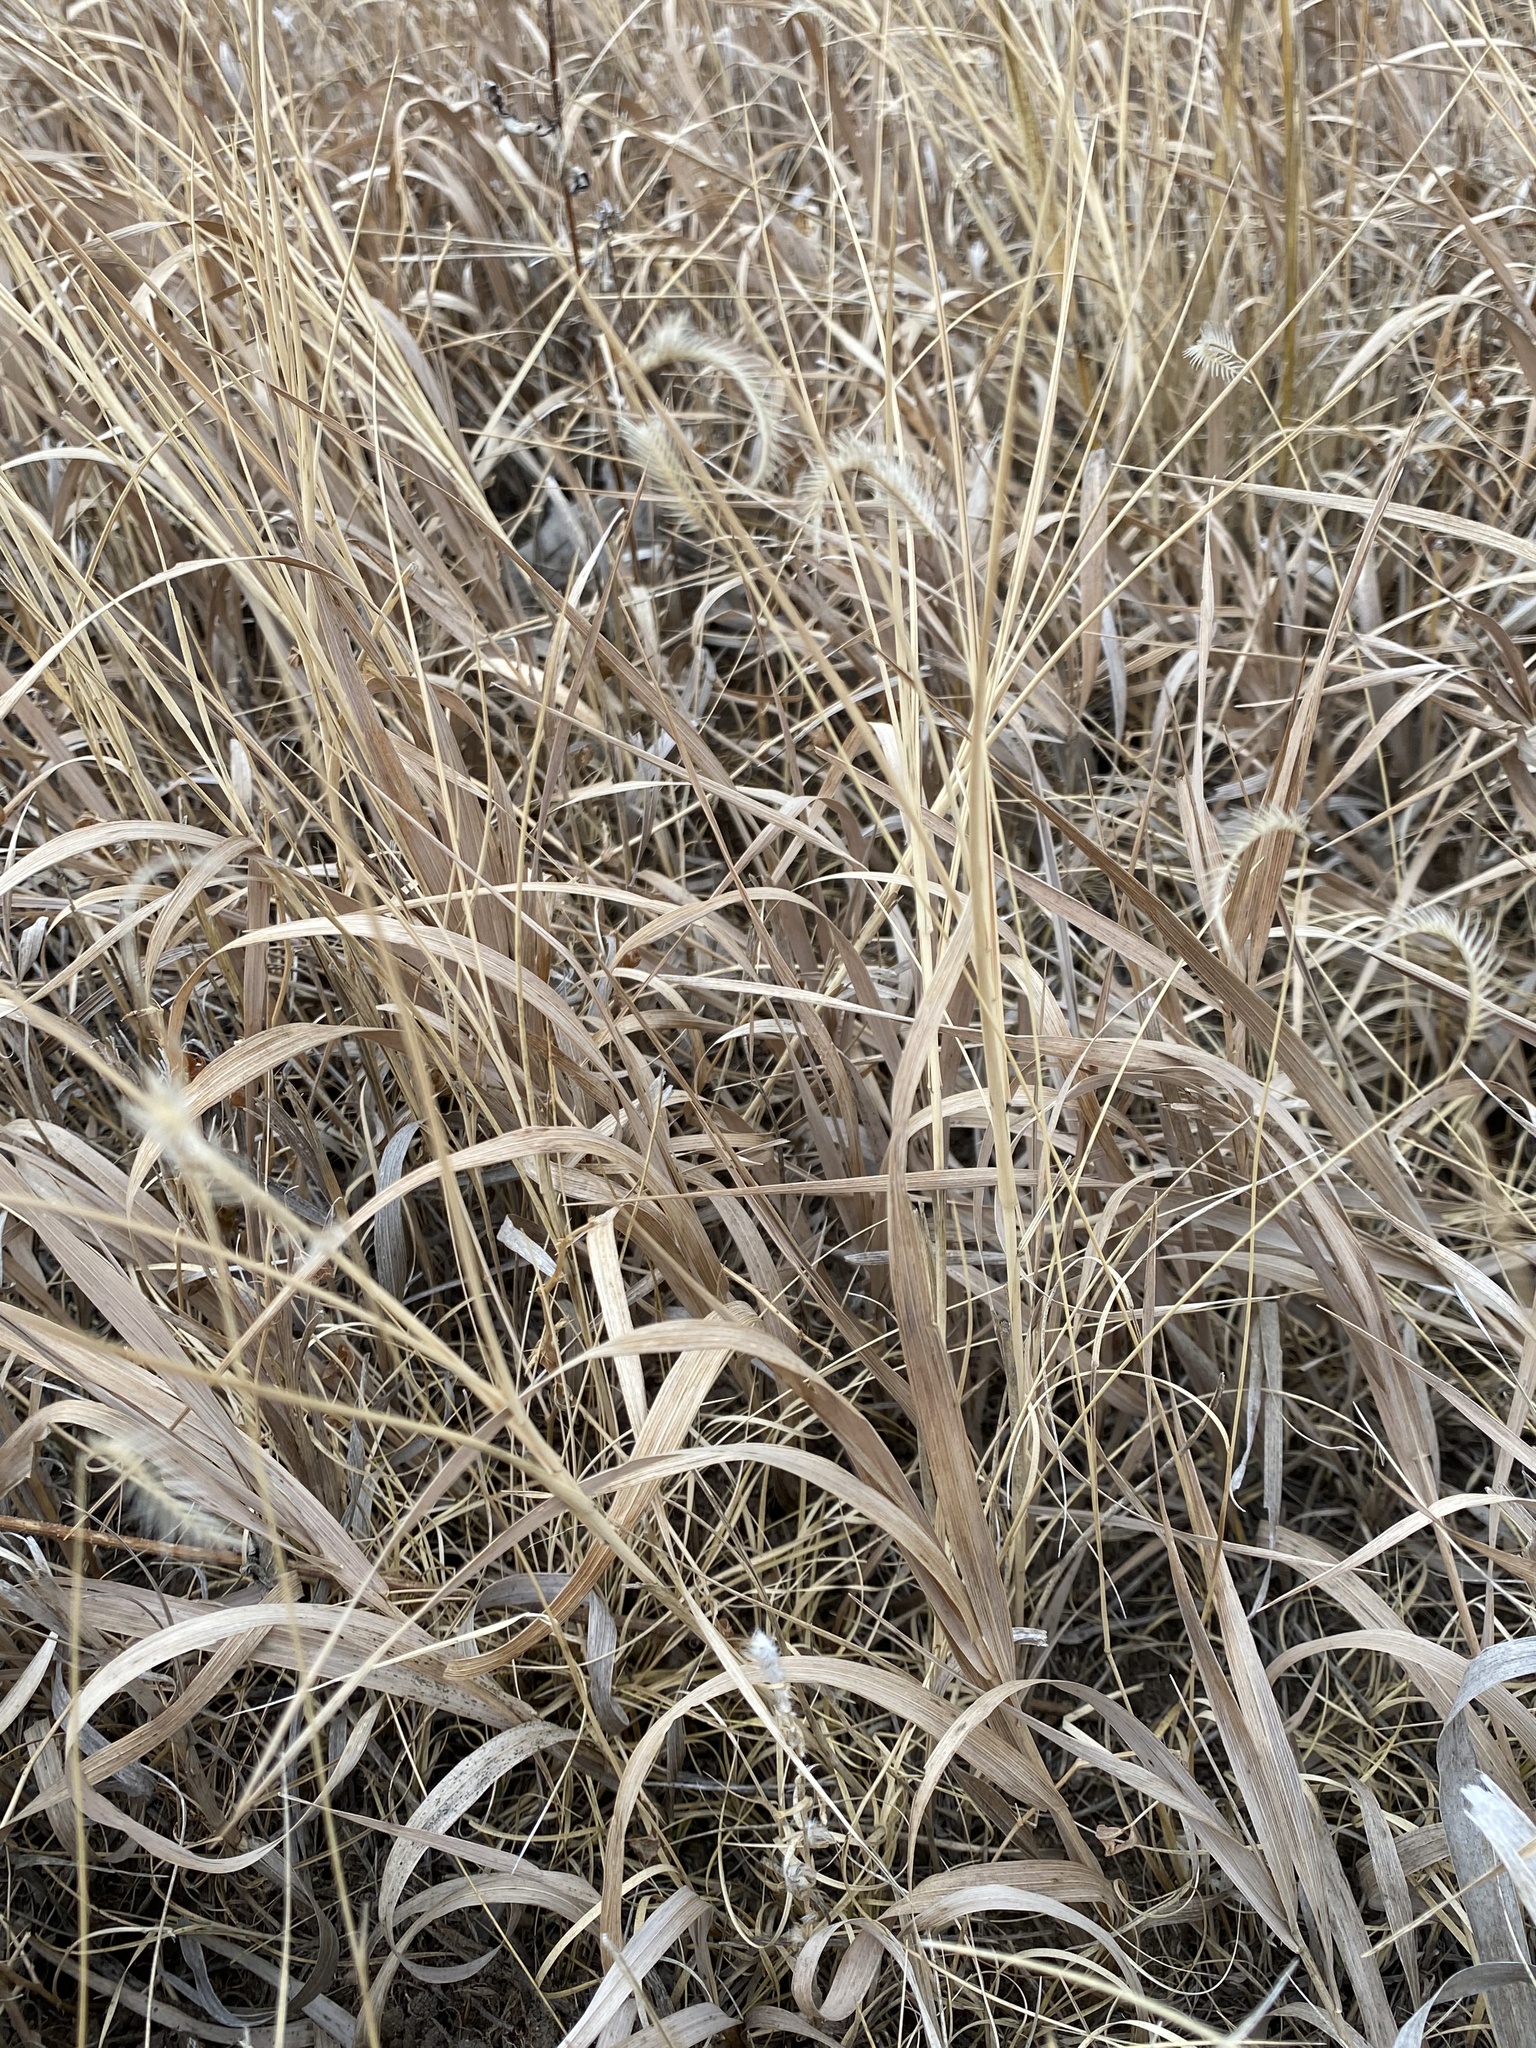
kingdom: Plantae
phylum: Tracheophyta
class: Liliopsida
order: Poales
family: Poaceae
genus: Bouteloua
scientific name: Bouteloua gracilis
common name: Blue grama
